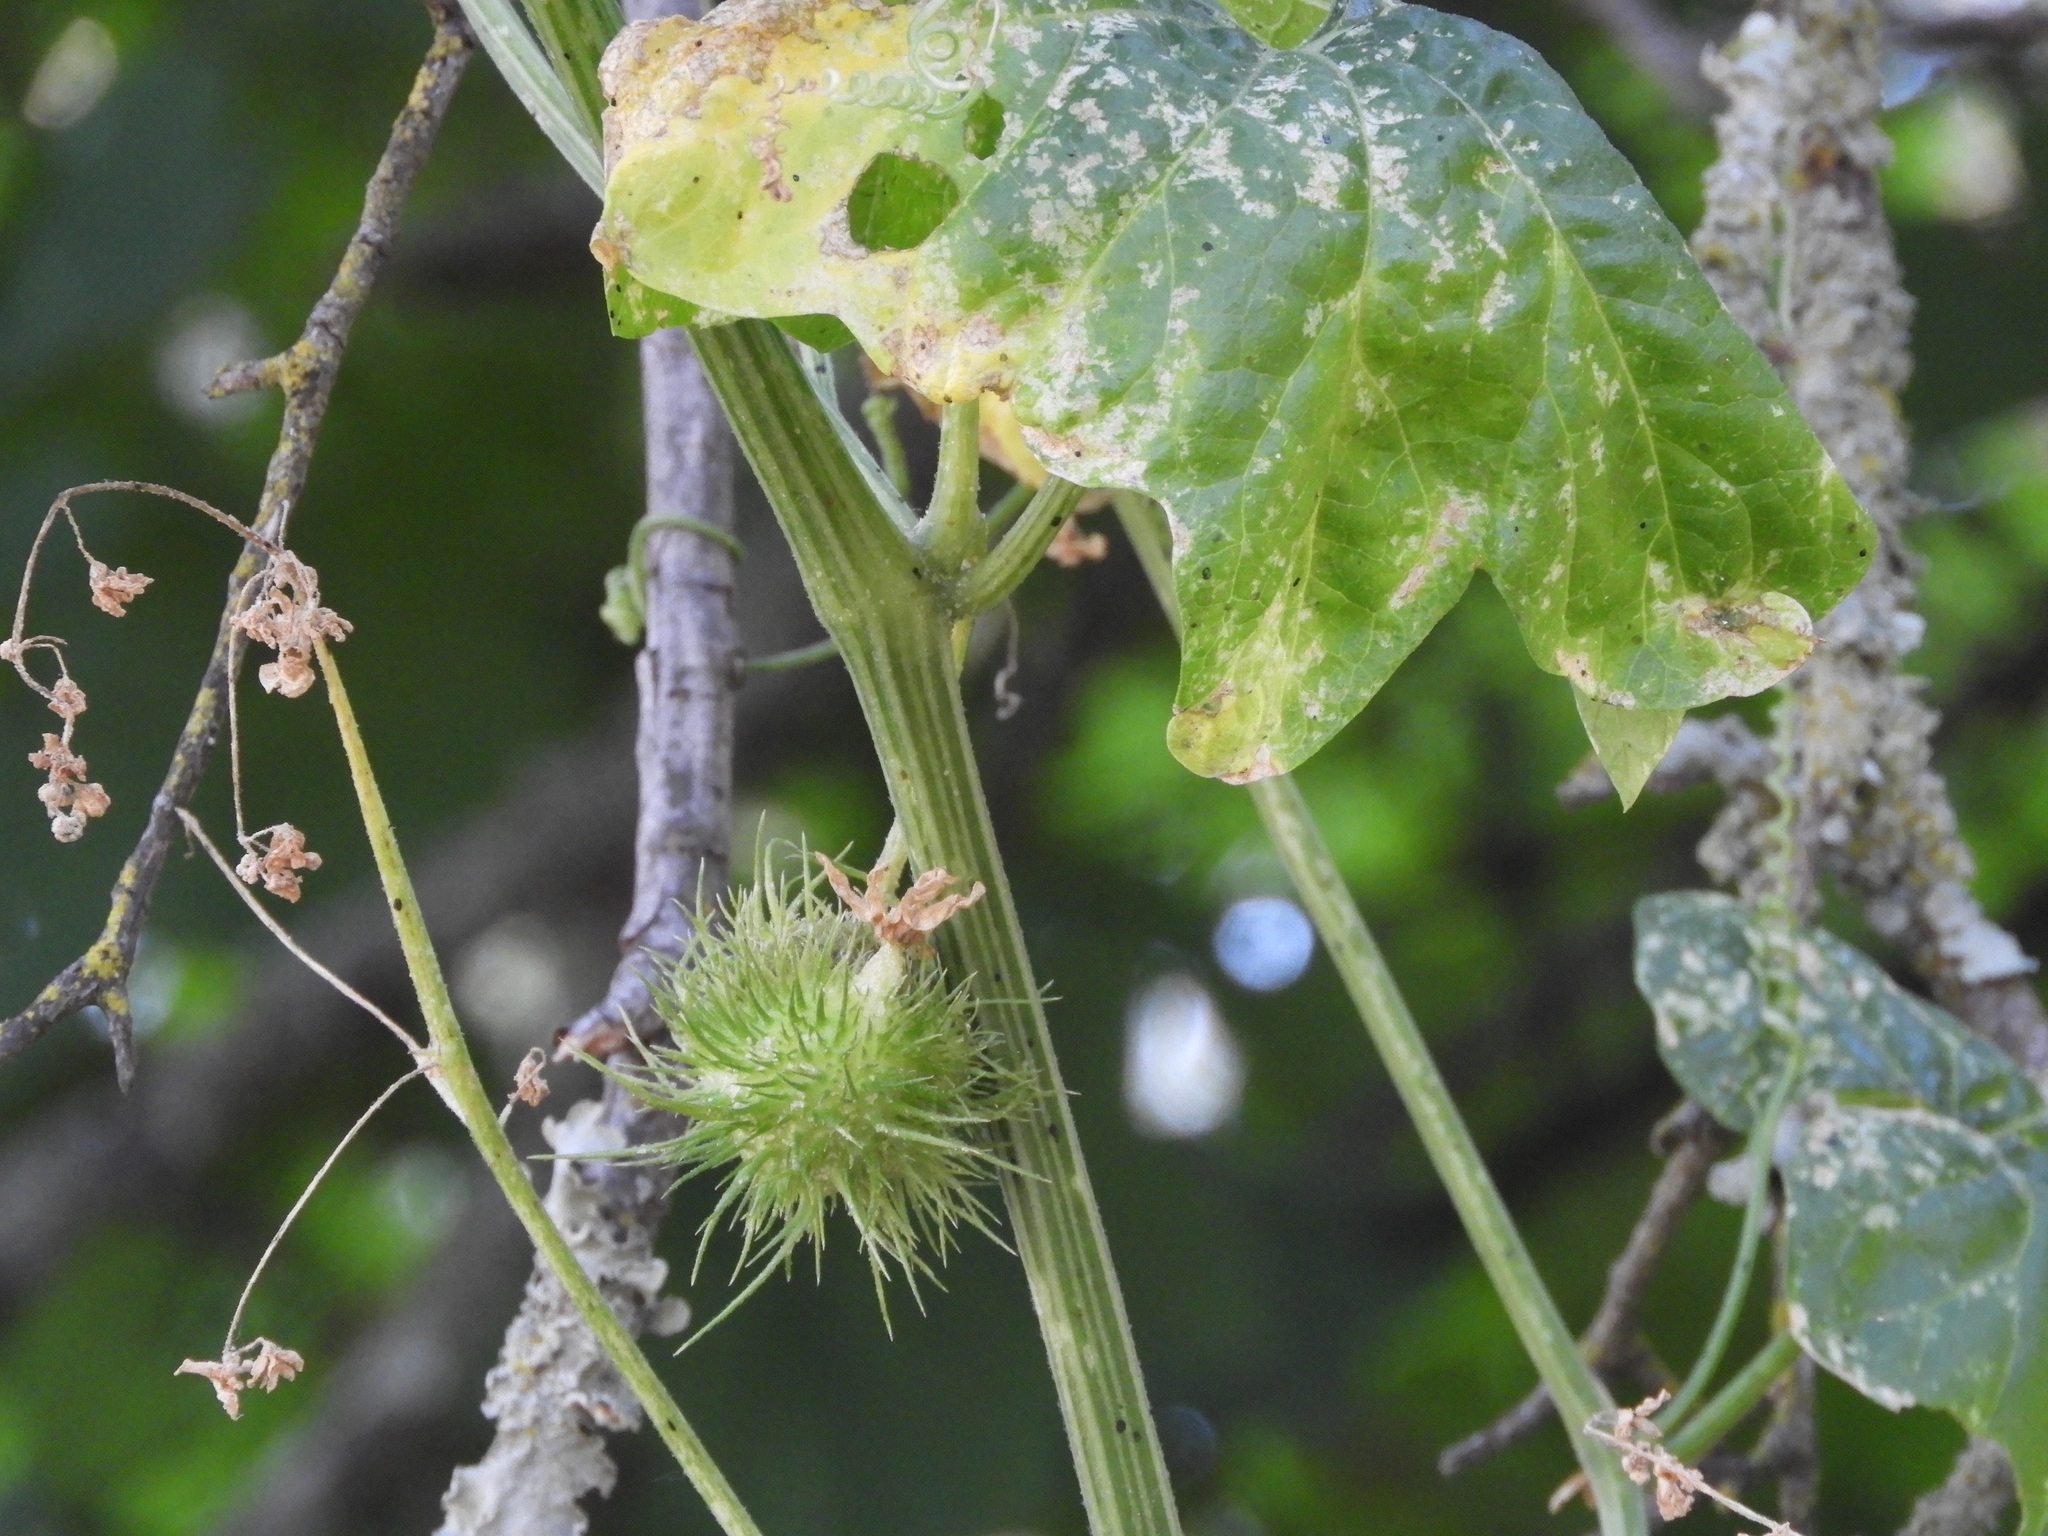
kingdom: Plantae
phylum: Tracheophyta
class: Magnoliopsida
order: Cucurbitales
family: Cucurbitaceae
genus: Marah
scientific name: Marah fabacea
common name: California manroot
